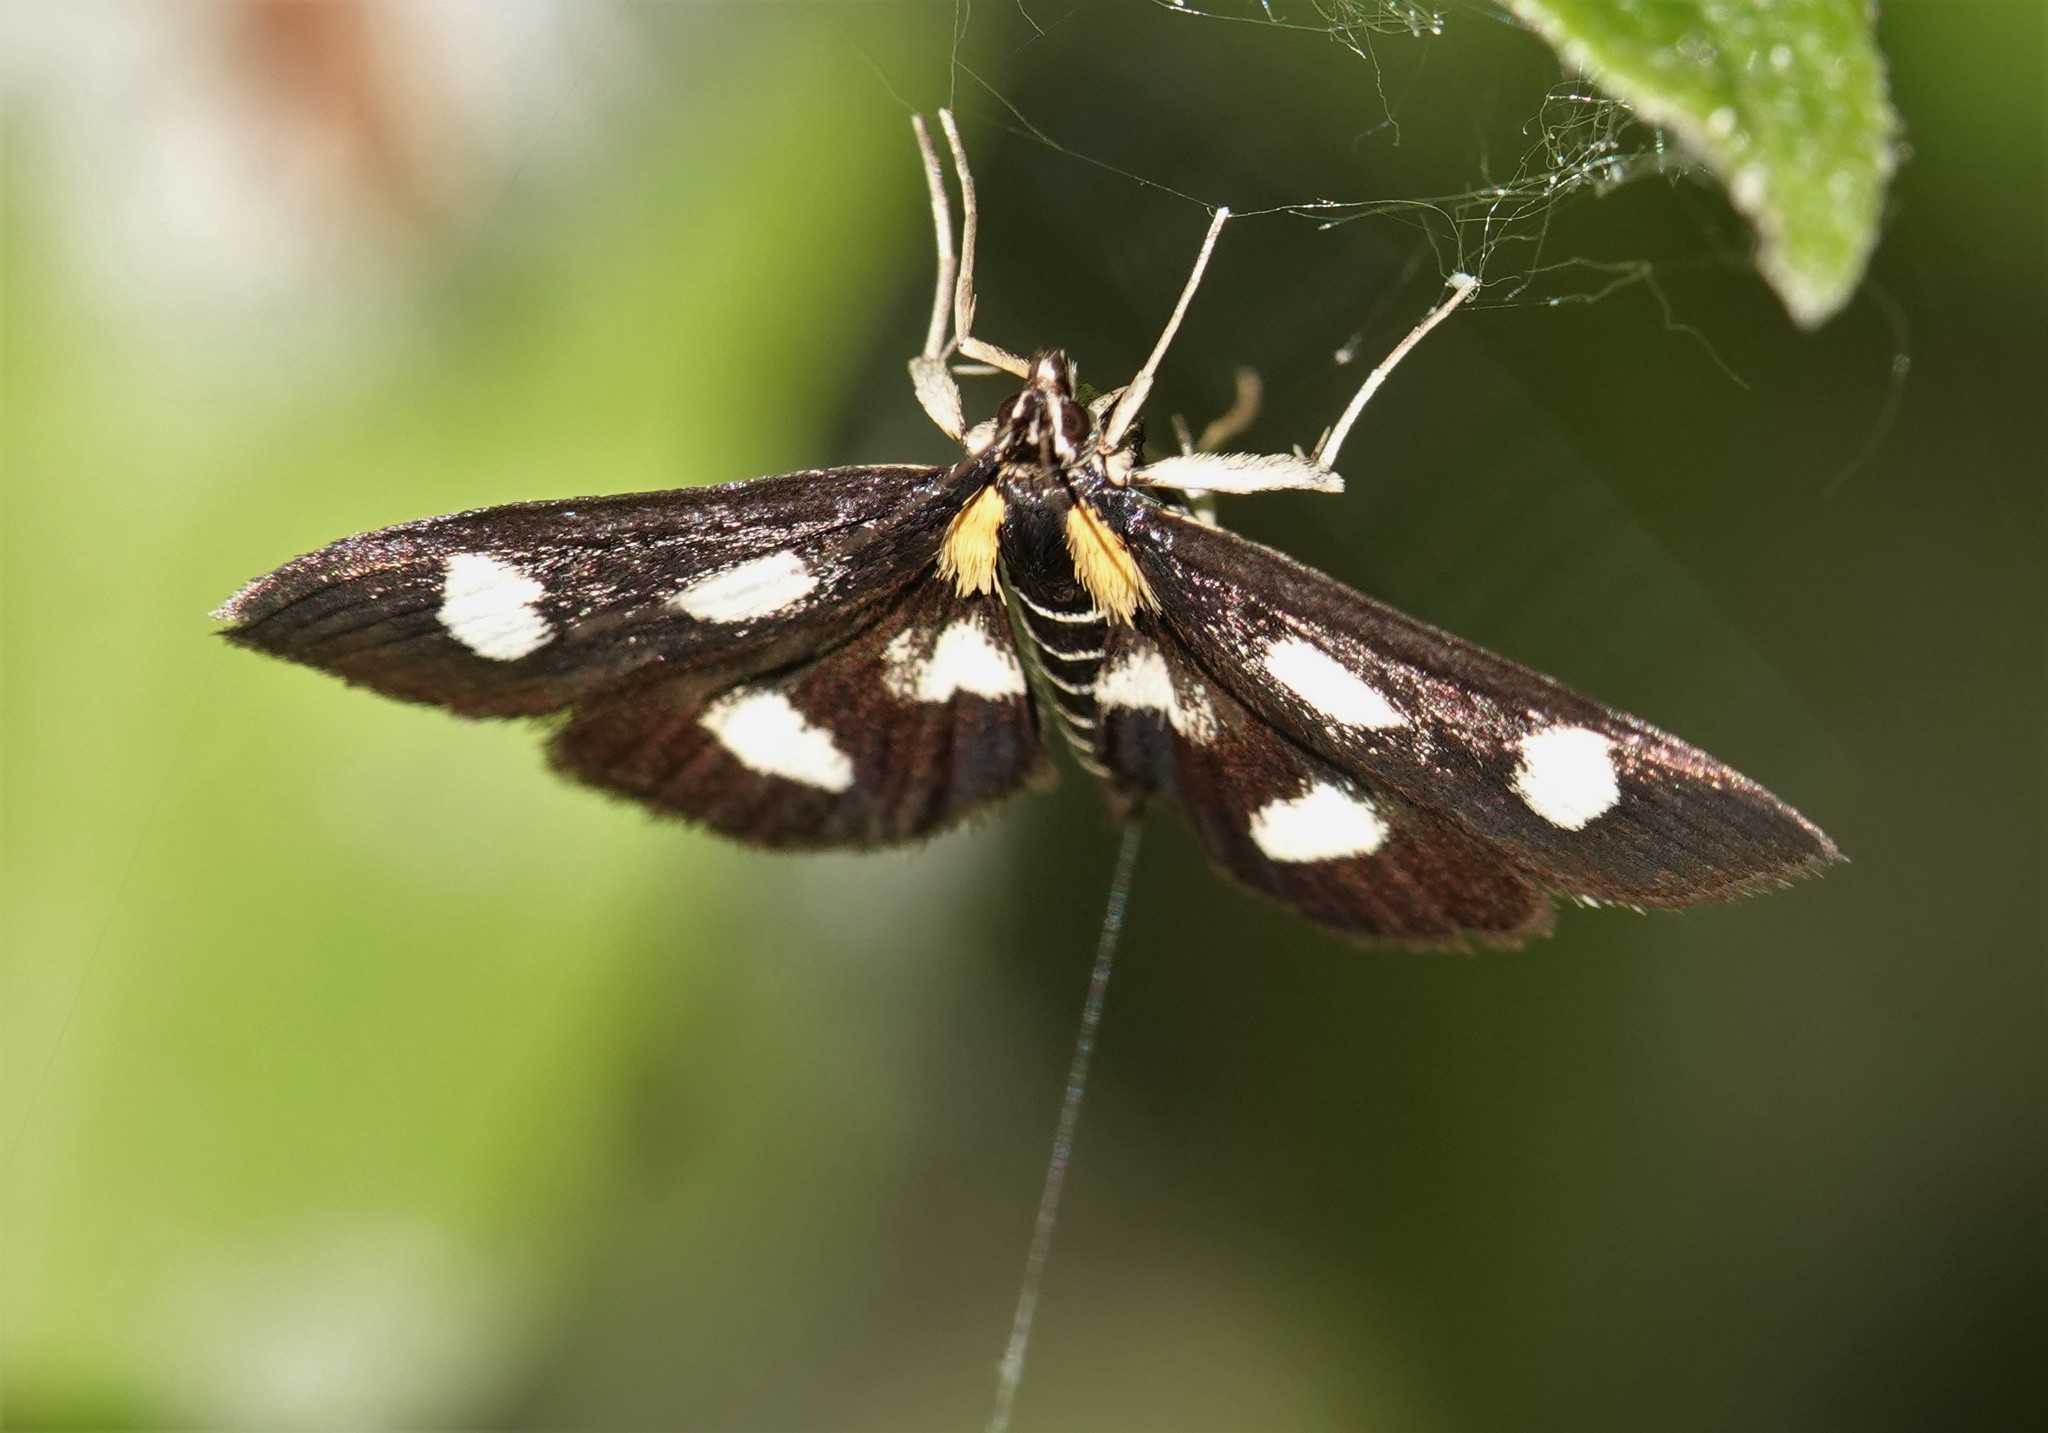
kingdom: Animalia
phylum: Arthropoda
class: Insecta
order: Lepidoptera
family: Crambidae
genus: Anania
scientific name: Anania funebris
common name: White-spotted sable moth
